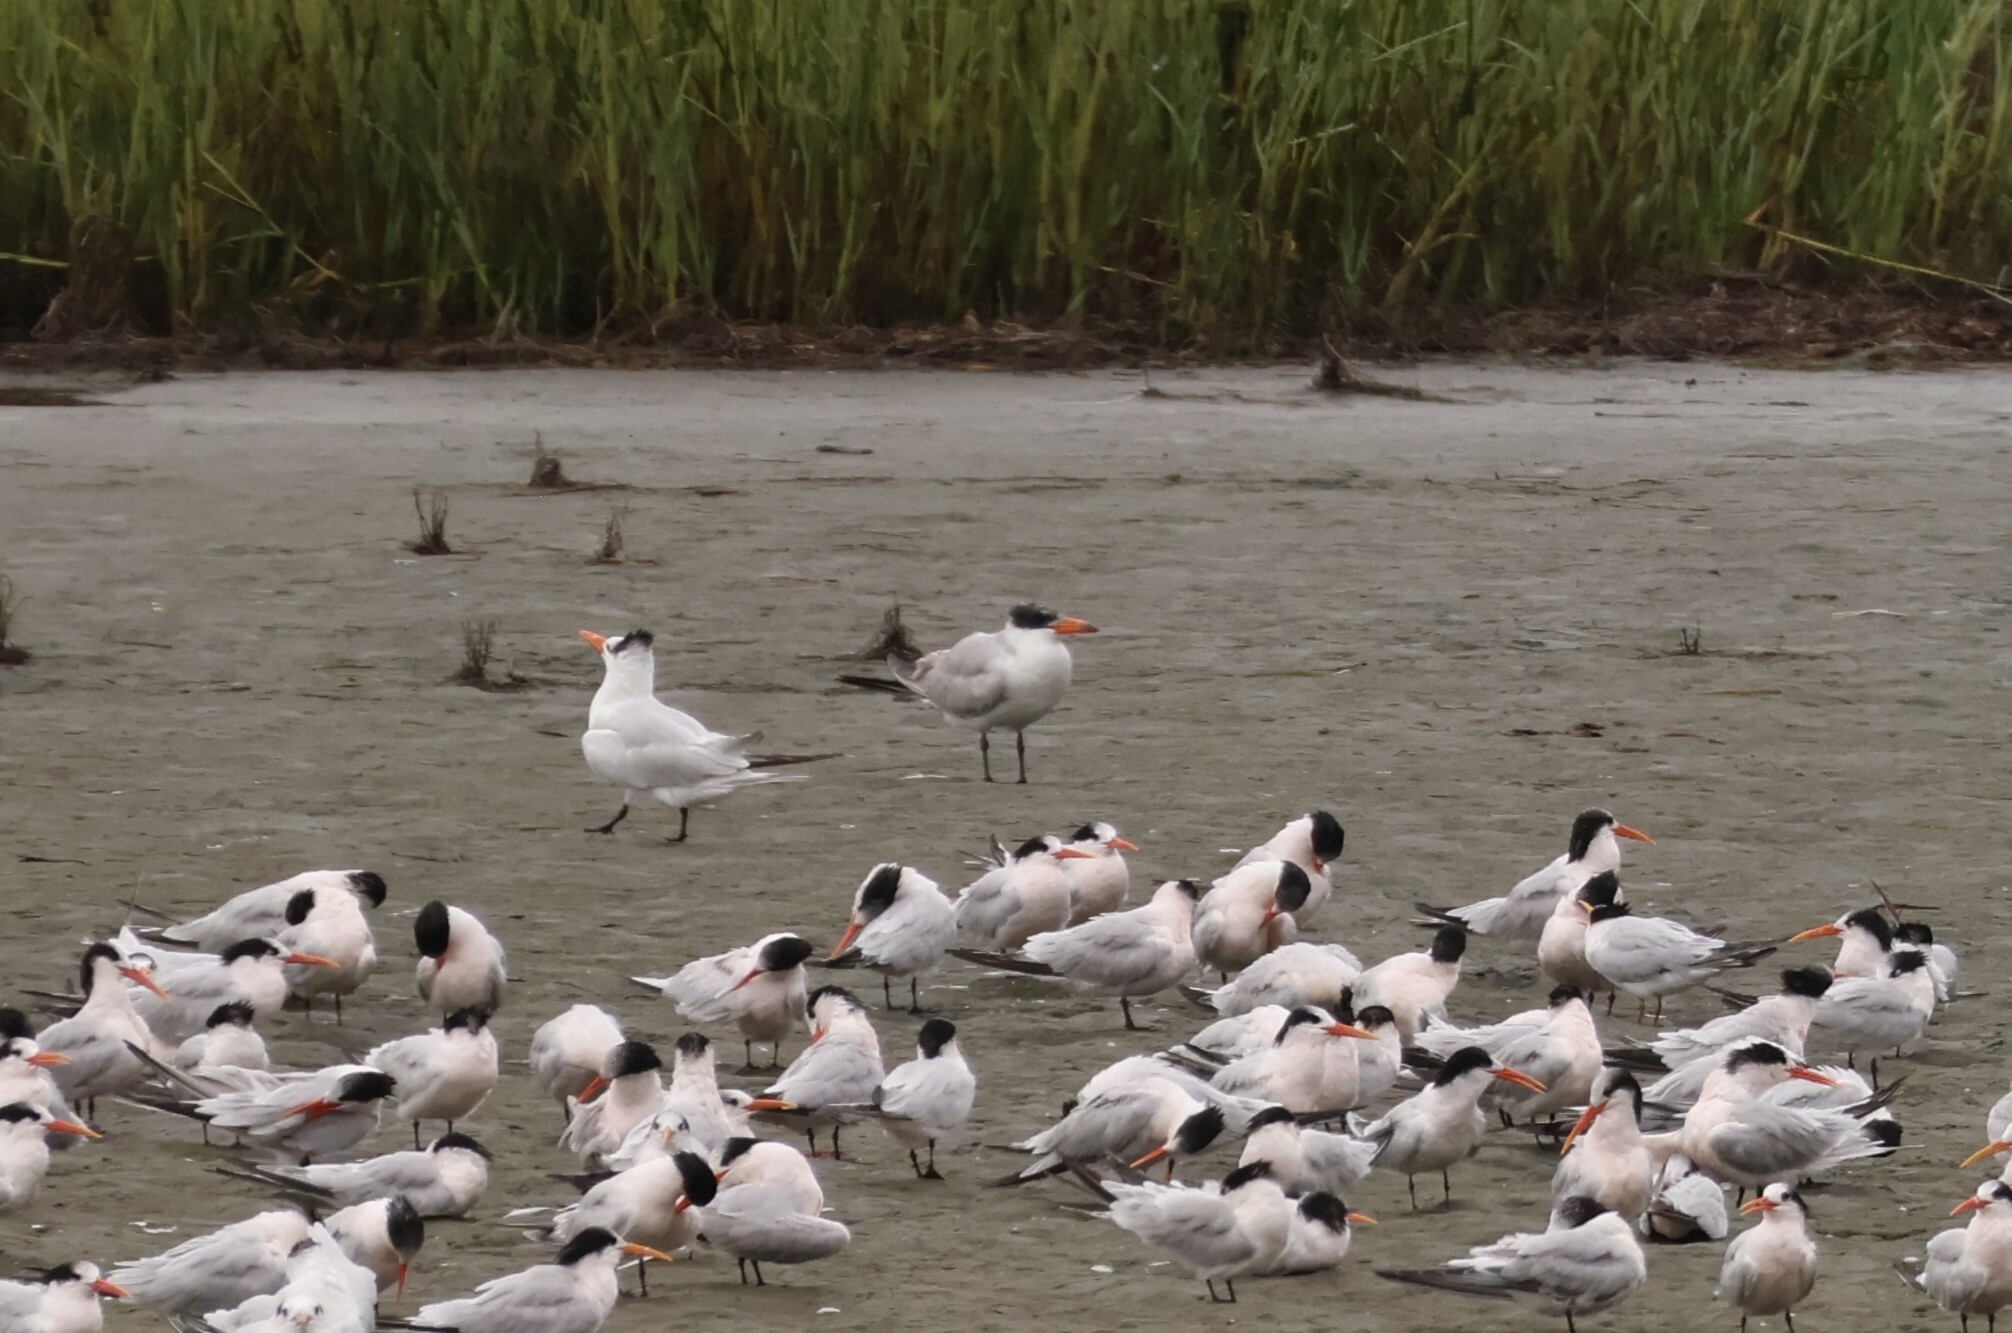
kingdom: Animalia
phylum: Chordata
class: Aves
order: Charadriiformes
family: Laridae
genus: Hydroprogne
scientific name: Hydroprogne caspia
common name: Caspian tern
